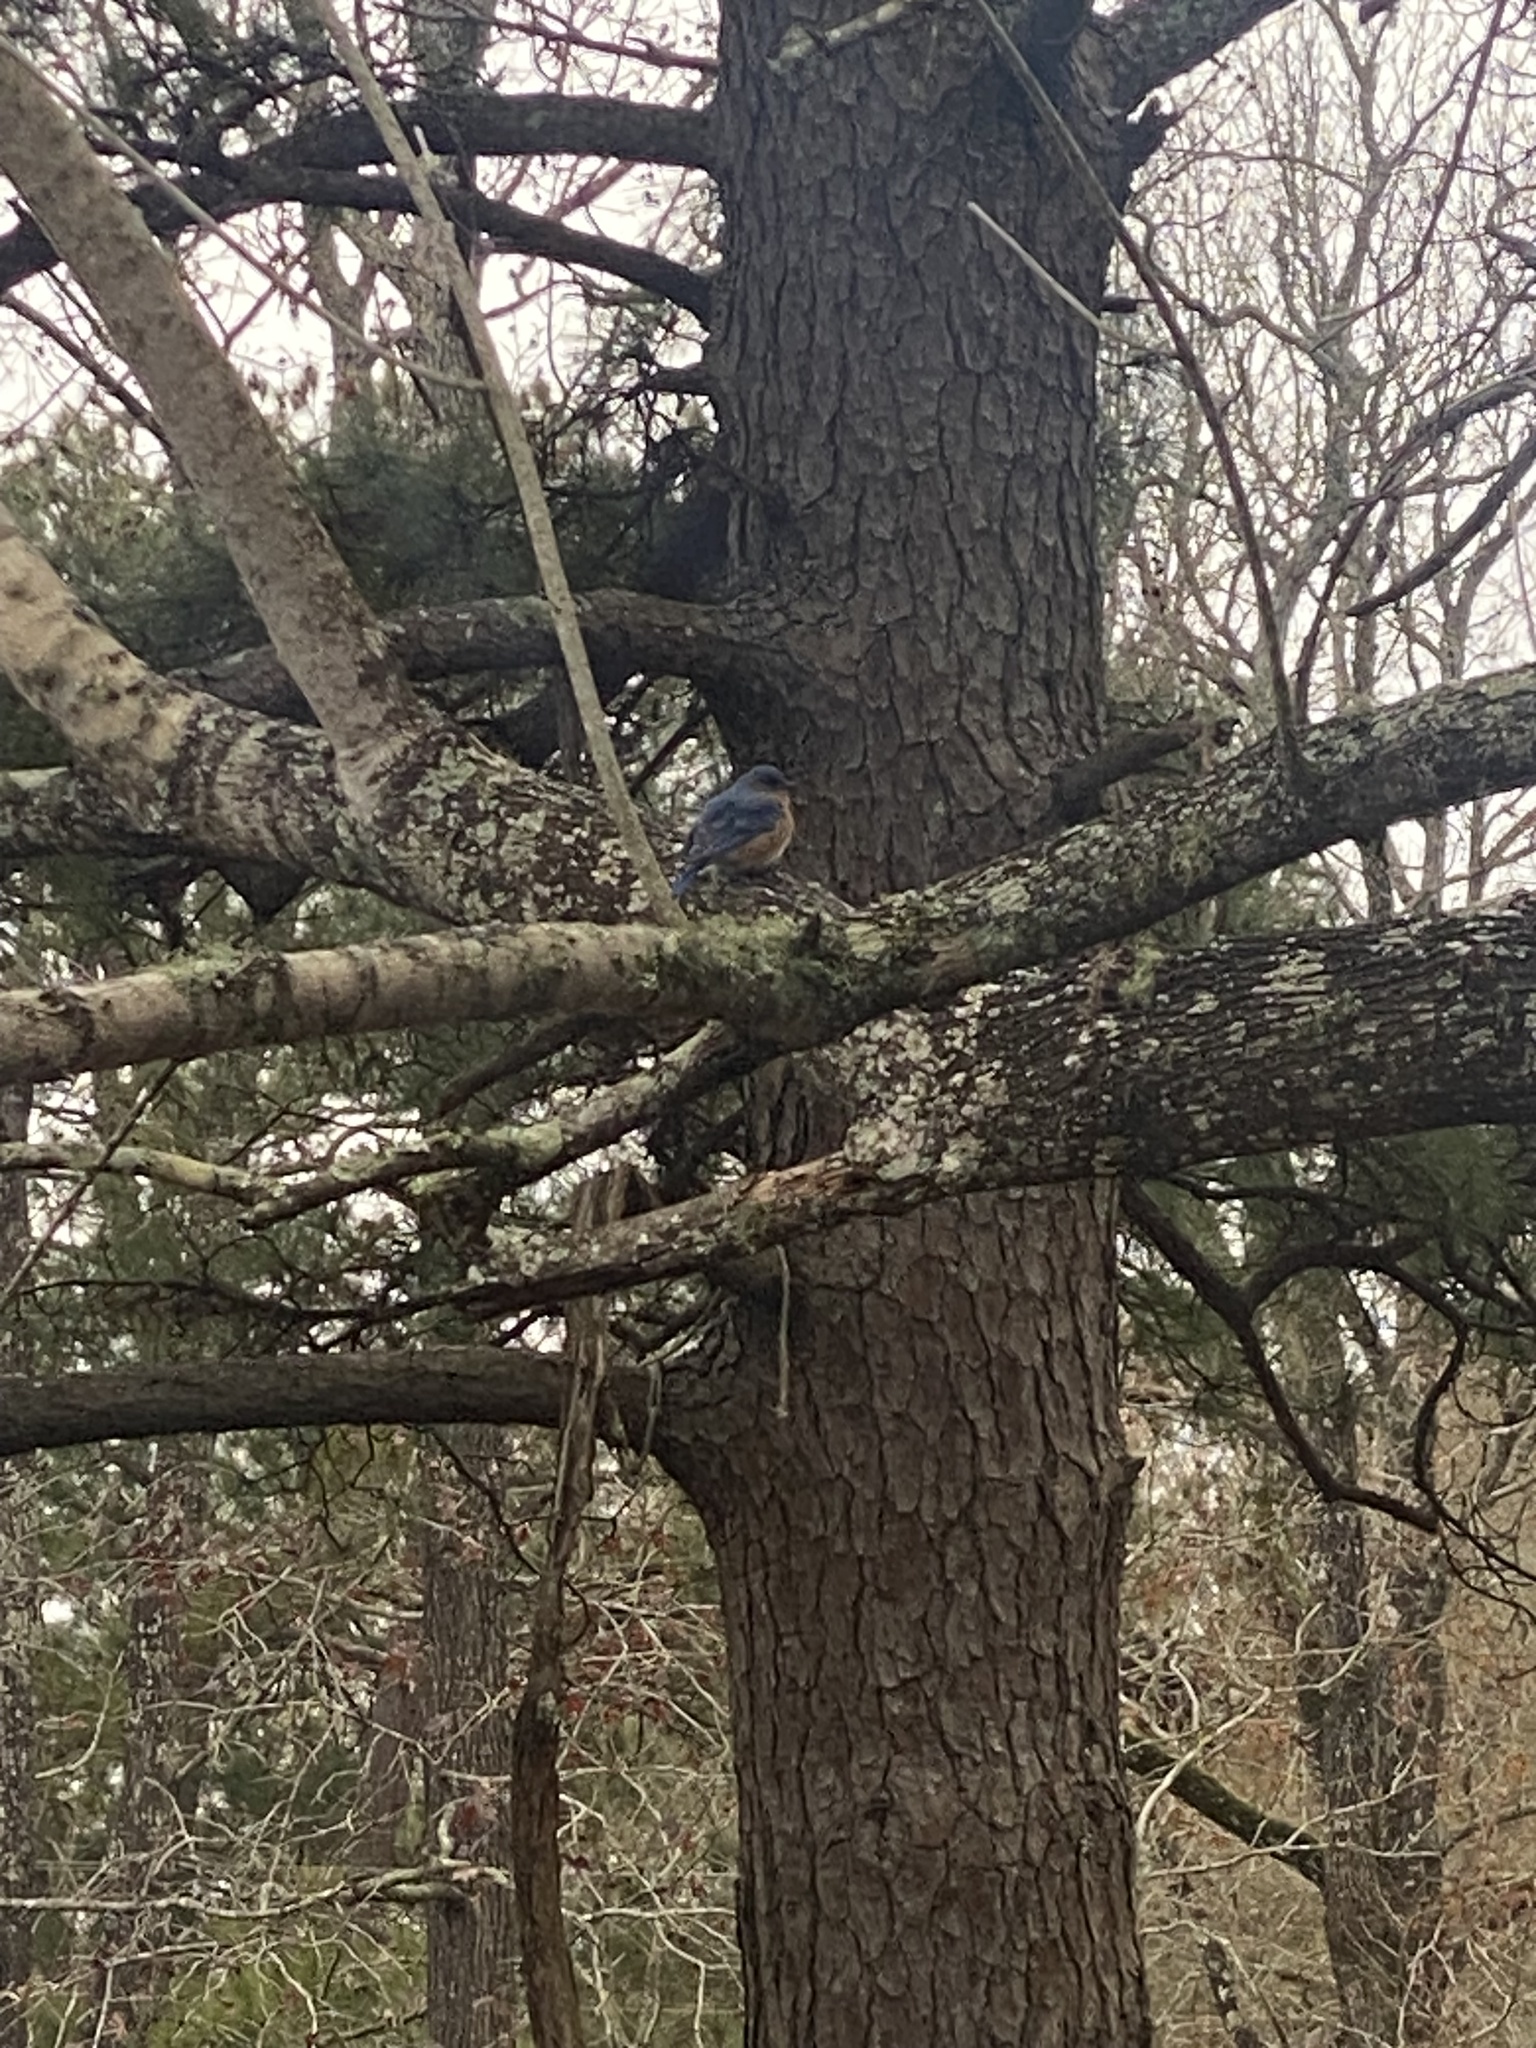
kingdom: Animalia
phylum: Chordata
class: Aves
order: Passeriformes
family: Turdidae
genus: Sialia
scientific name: Sialia sialis
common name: Eastern bluebird
